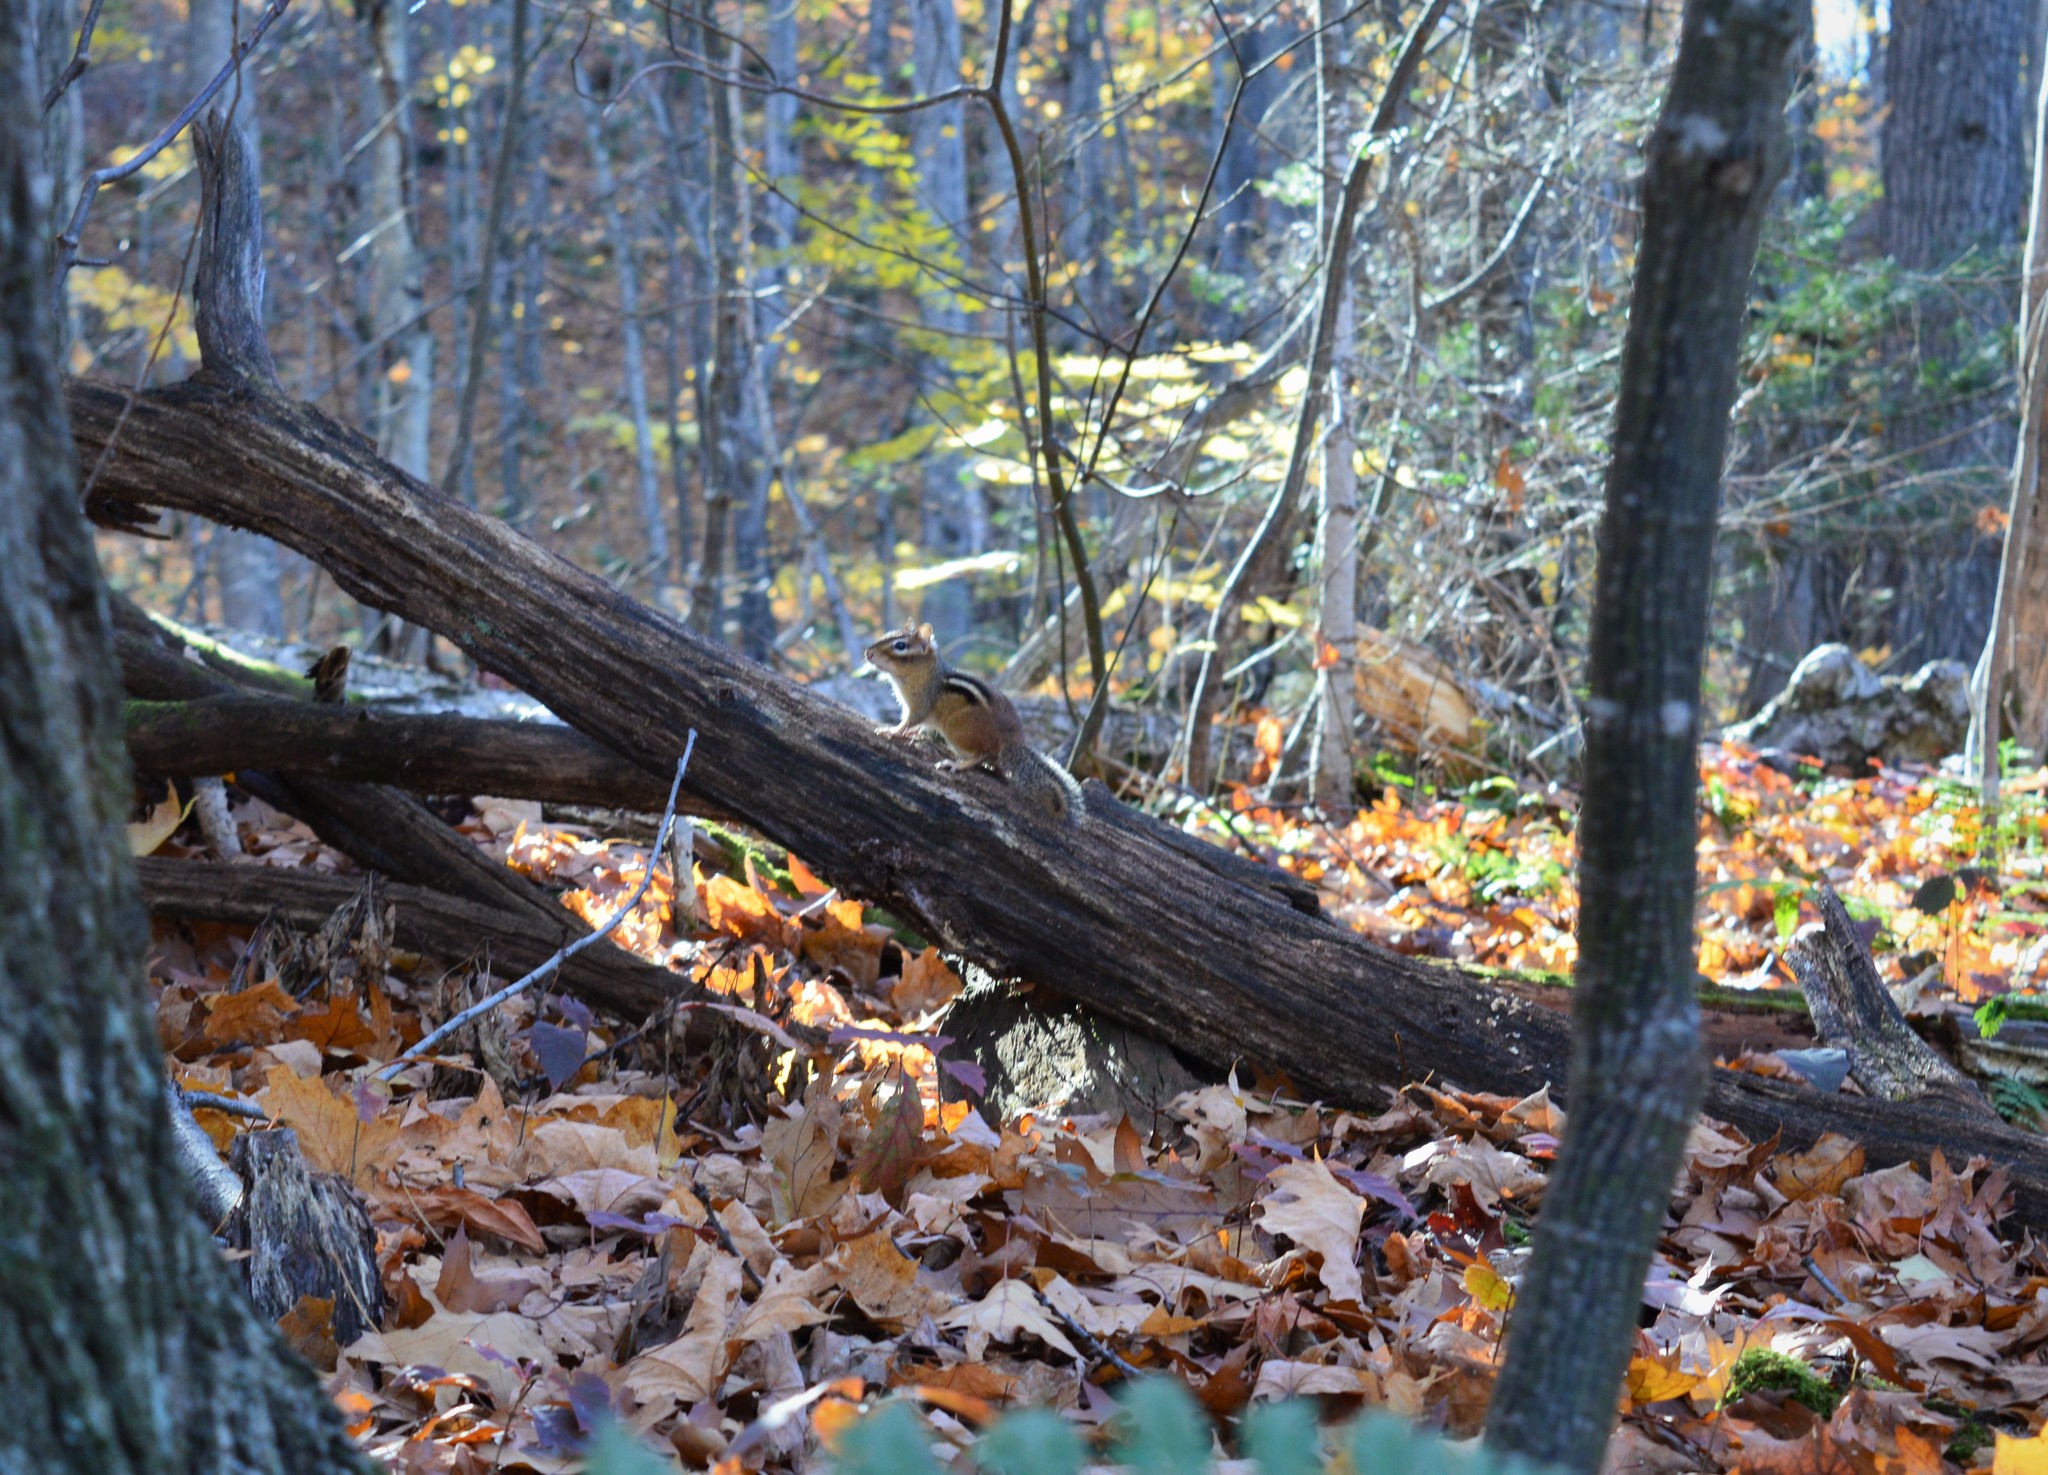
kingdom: Animalia
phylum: Chordata
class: Mammalia
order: Rodentia
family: Sciuridae
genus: Tamias
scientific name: Tamias striatus
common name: Eastern chipmunk
